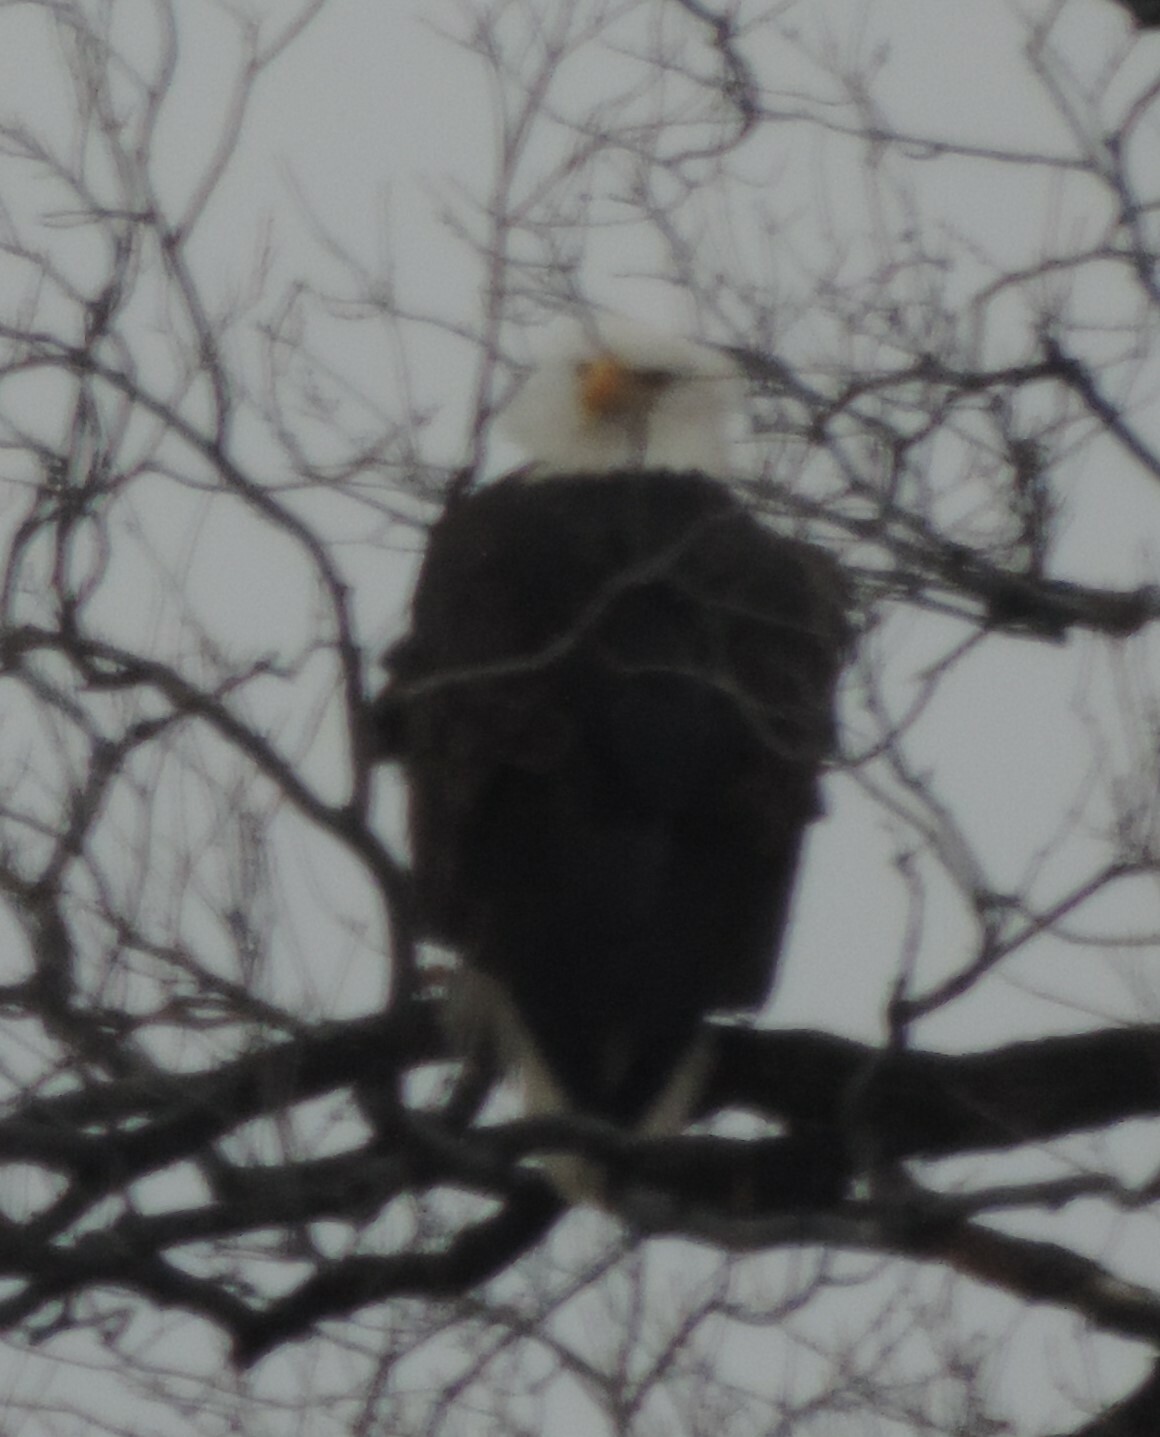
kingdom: Animalia
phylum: Chordata
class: Aves
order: Accipitriformes
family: Accipitridae
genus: Haliaeetus
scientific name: Haliaeetus leucocephalus
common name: Bald eagle
